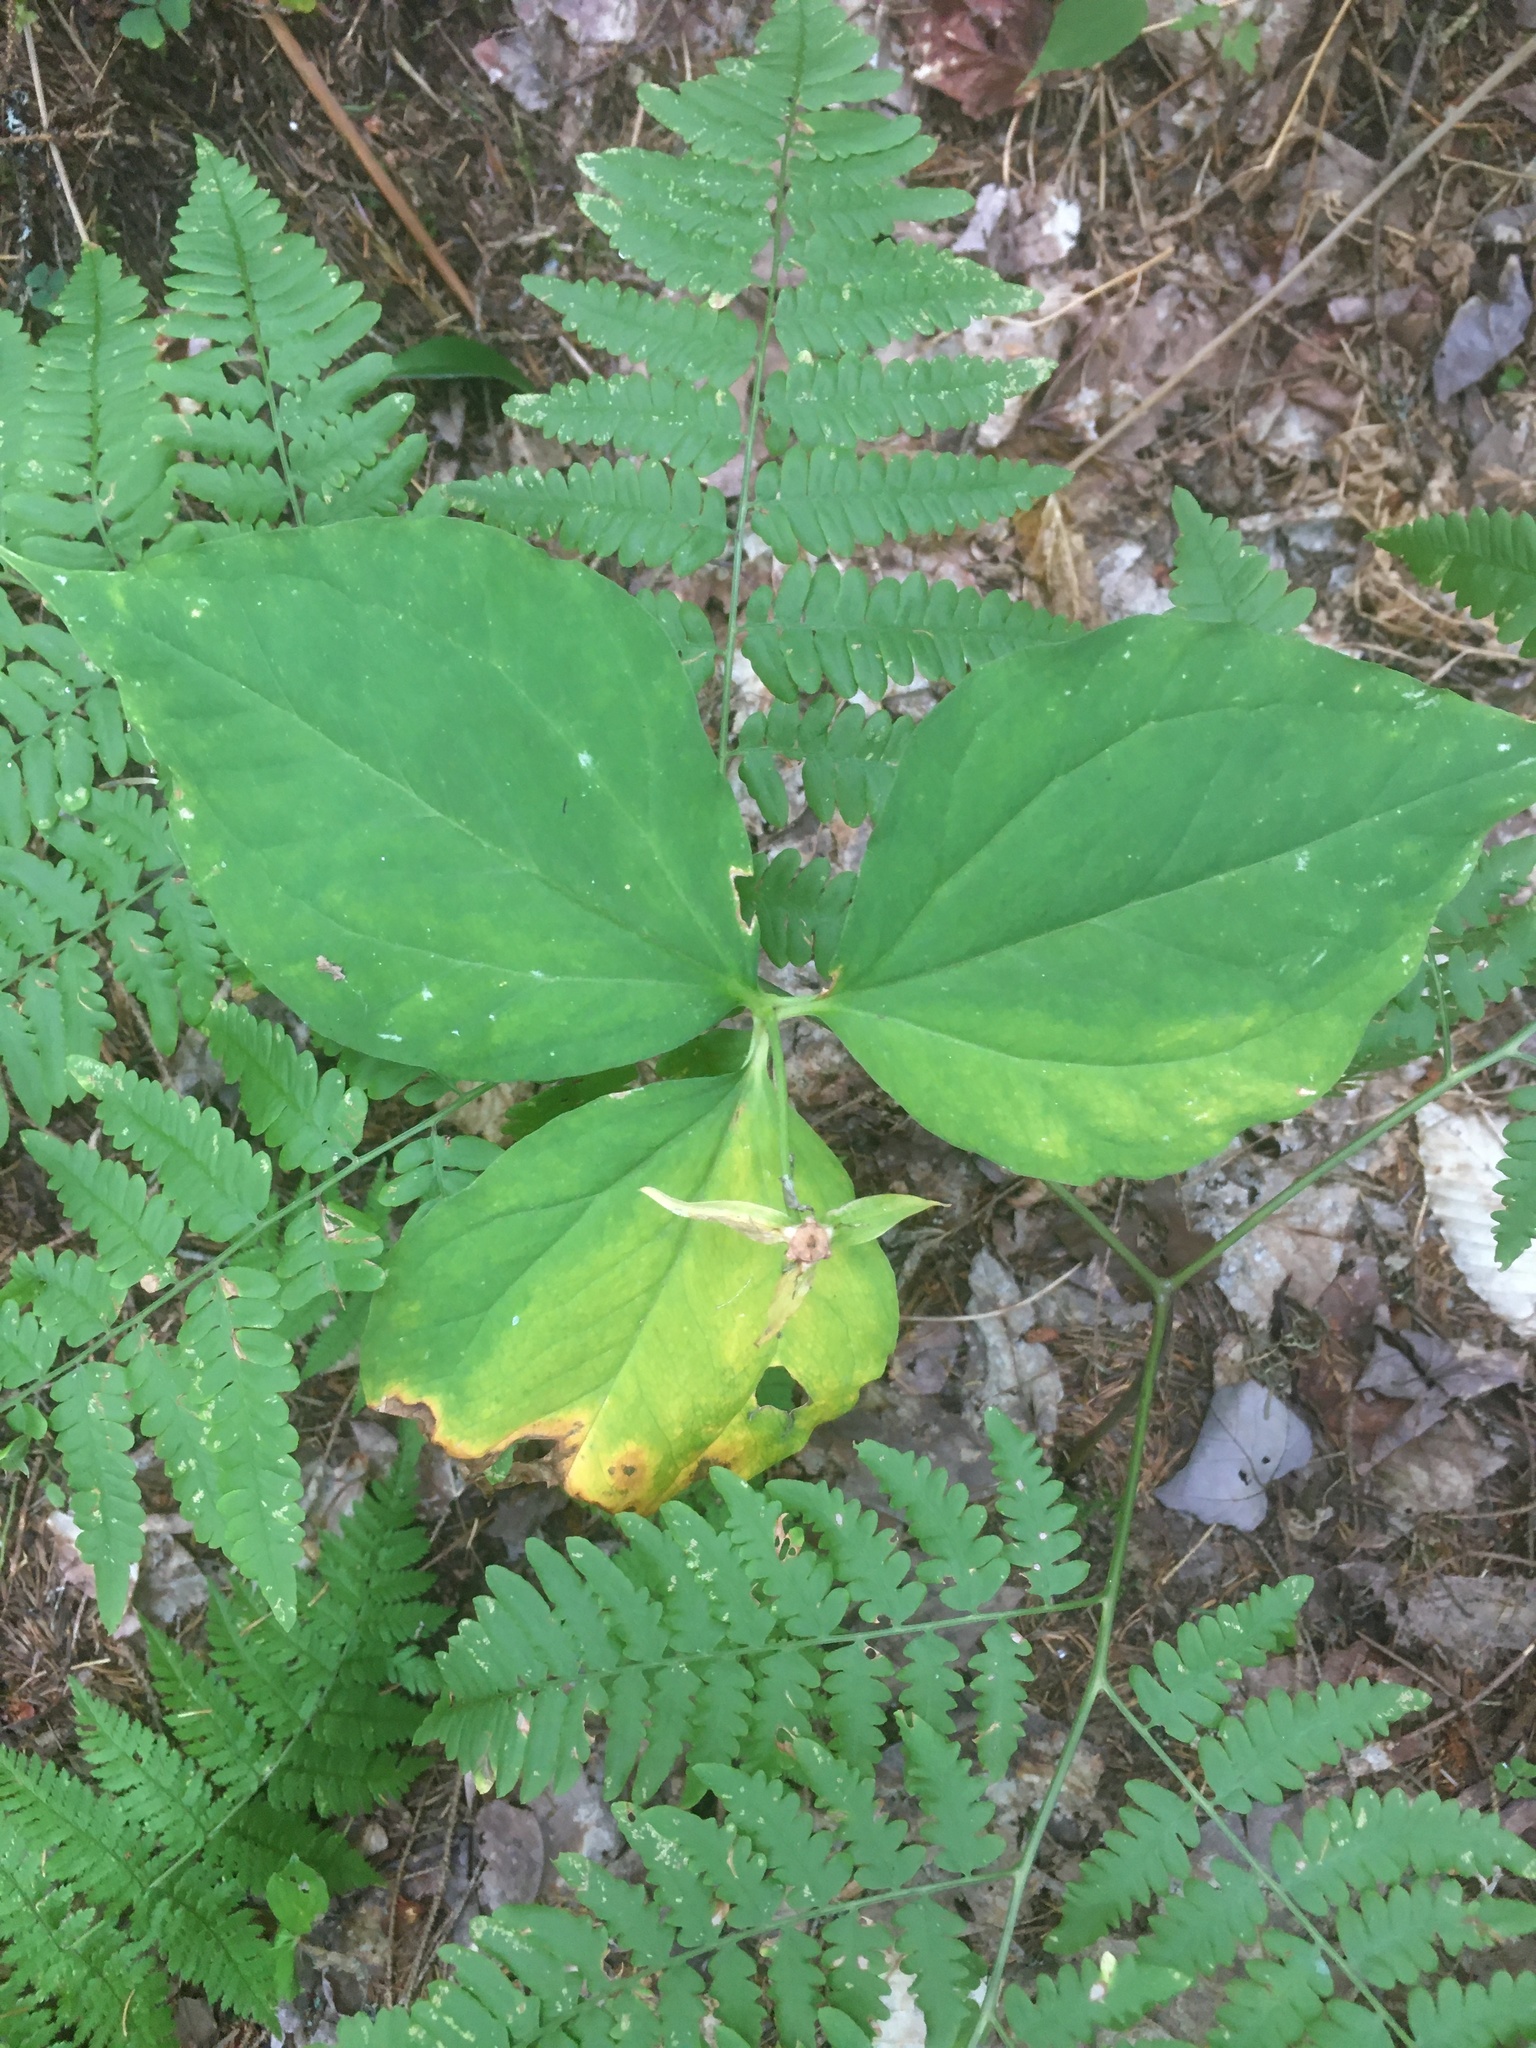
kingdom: Plantae
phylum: Tracheophyta
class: Liliopsida
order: Liliales
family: Melanthiaceae
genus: Trillium
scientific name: Trillium undulatum
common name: Paint trillium
